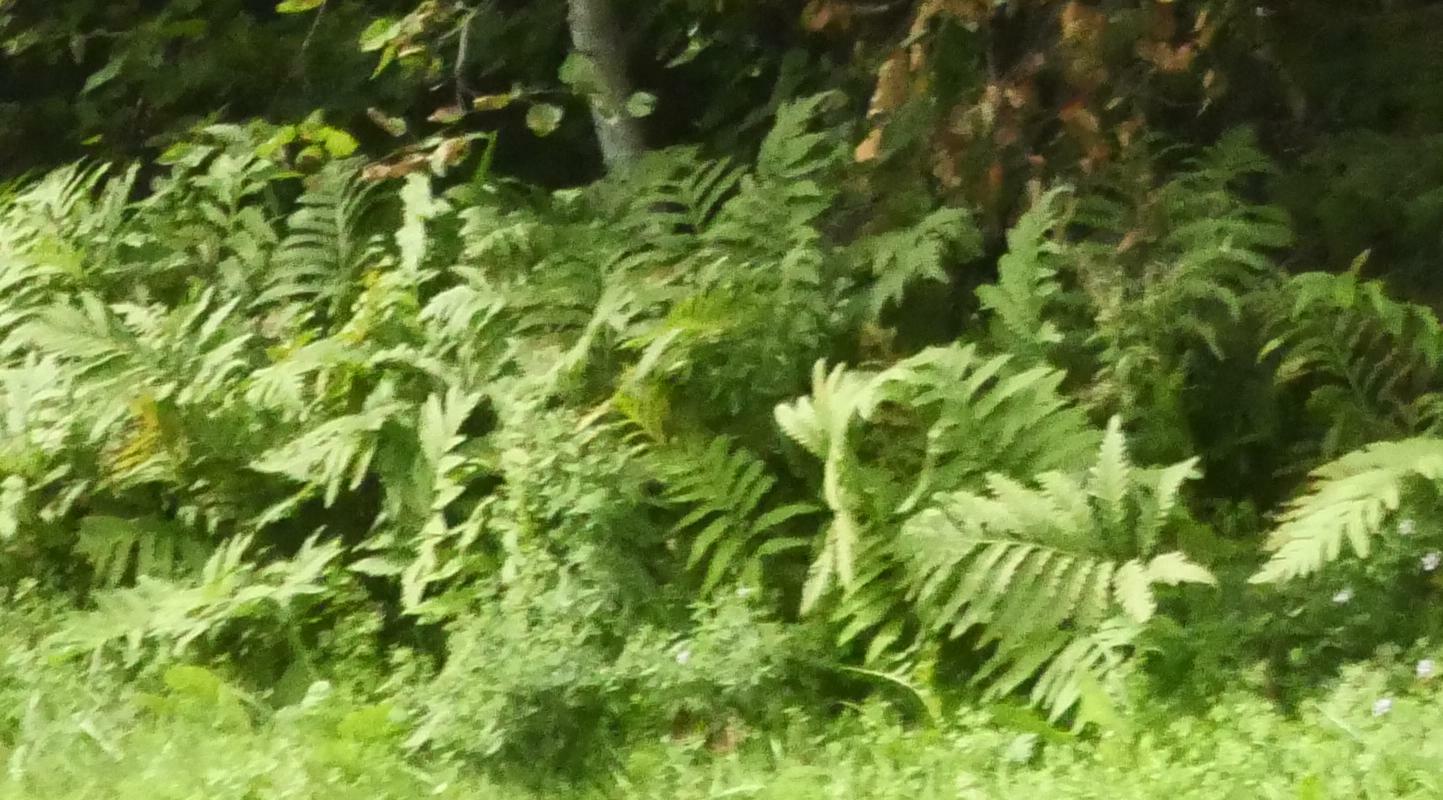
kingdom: Plantae
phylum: Tracheophyta
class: Polypodiopsida
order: Polypodiales
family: Onocleaceae
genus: Onoclea
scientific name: Onoclea sensibilis
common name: Sensitive fern
